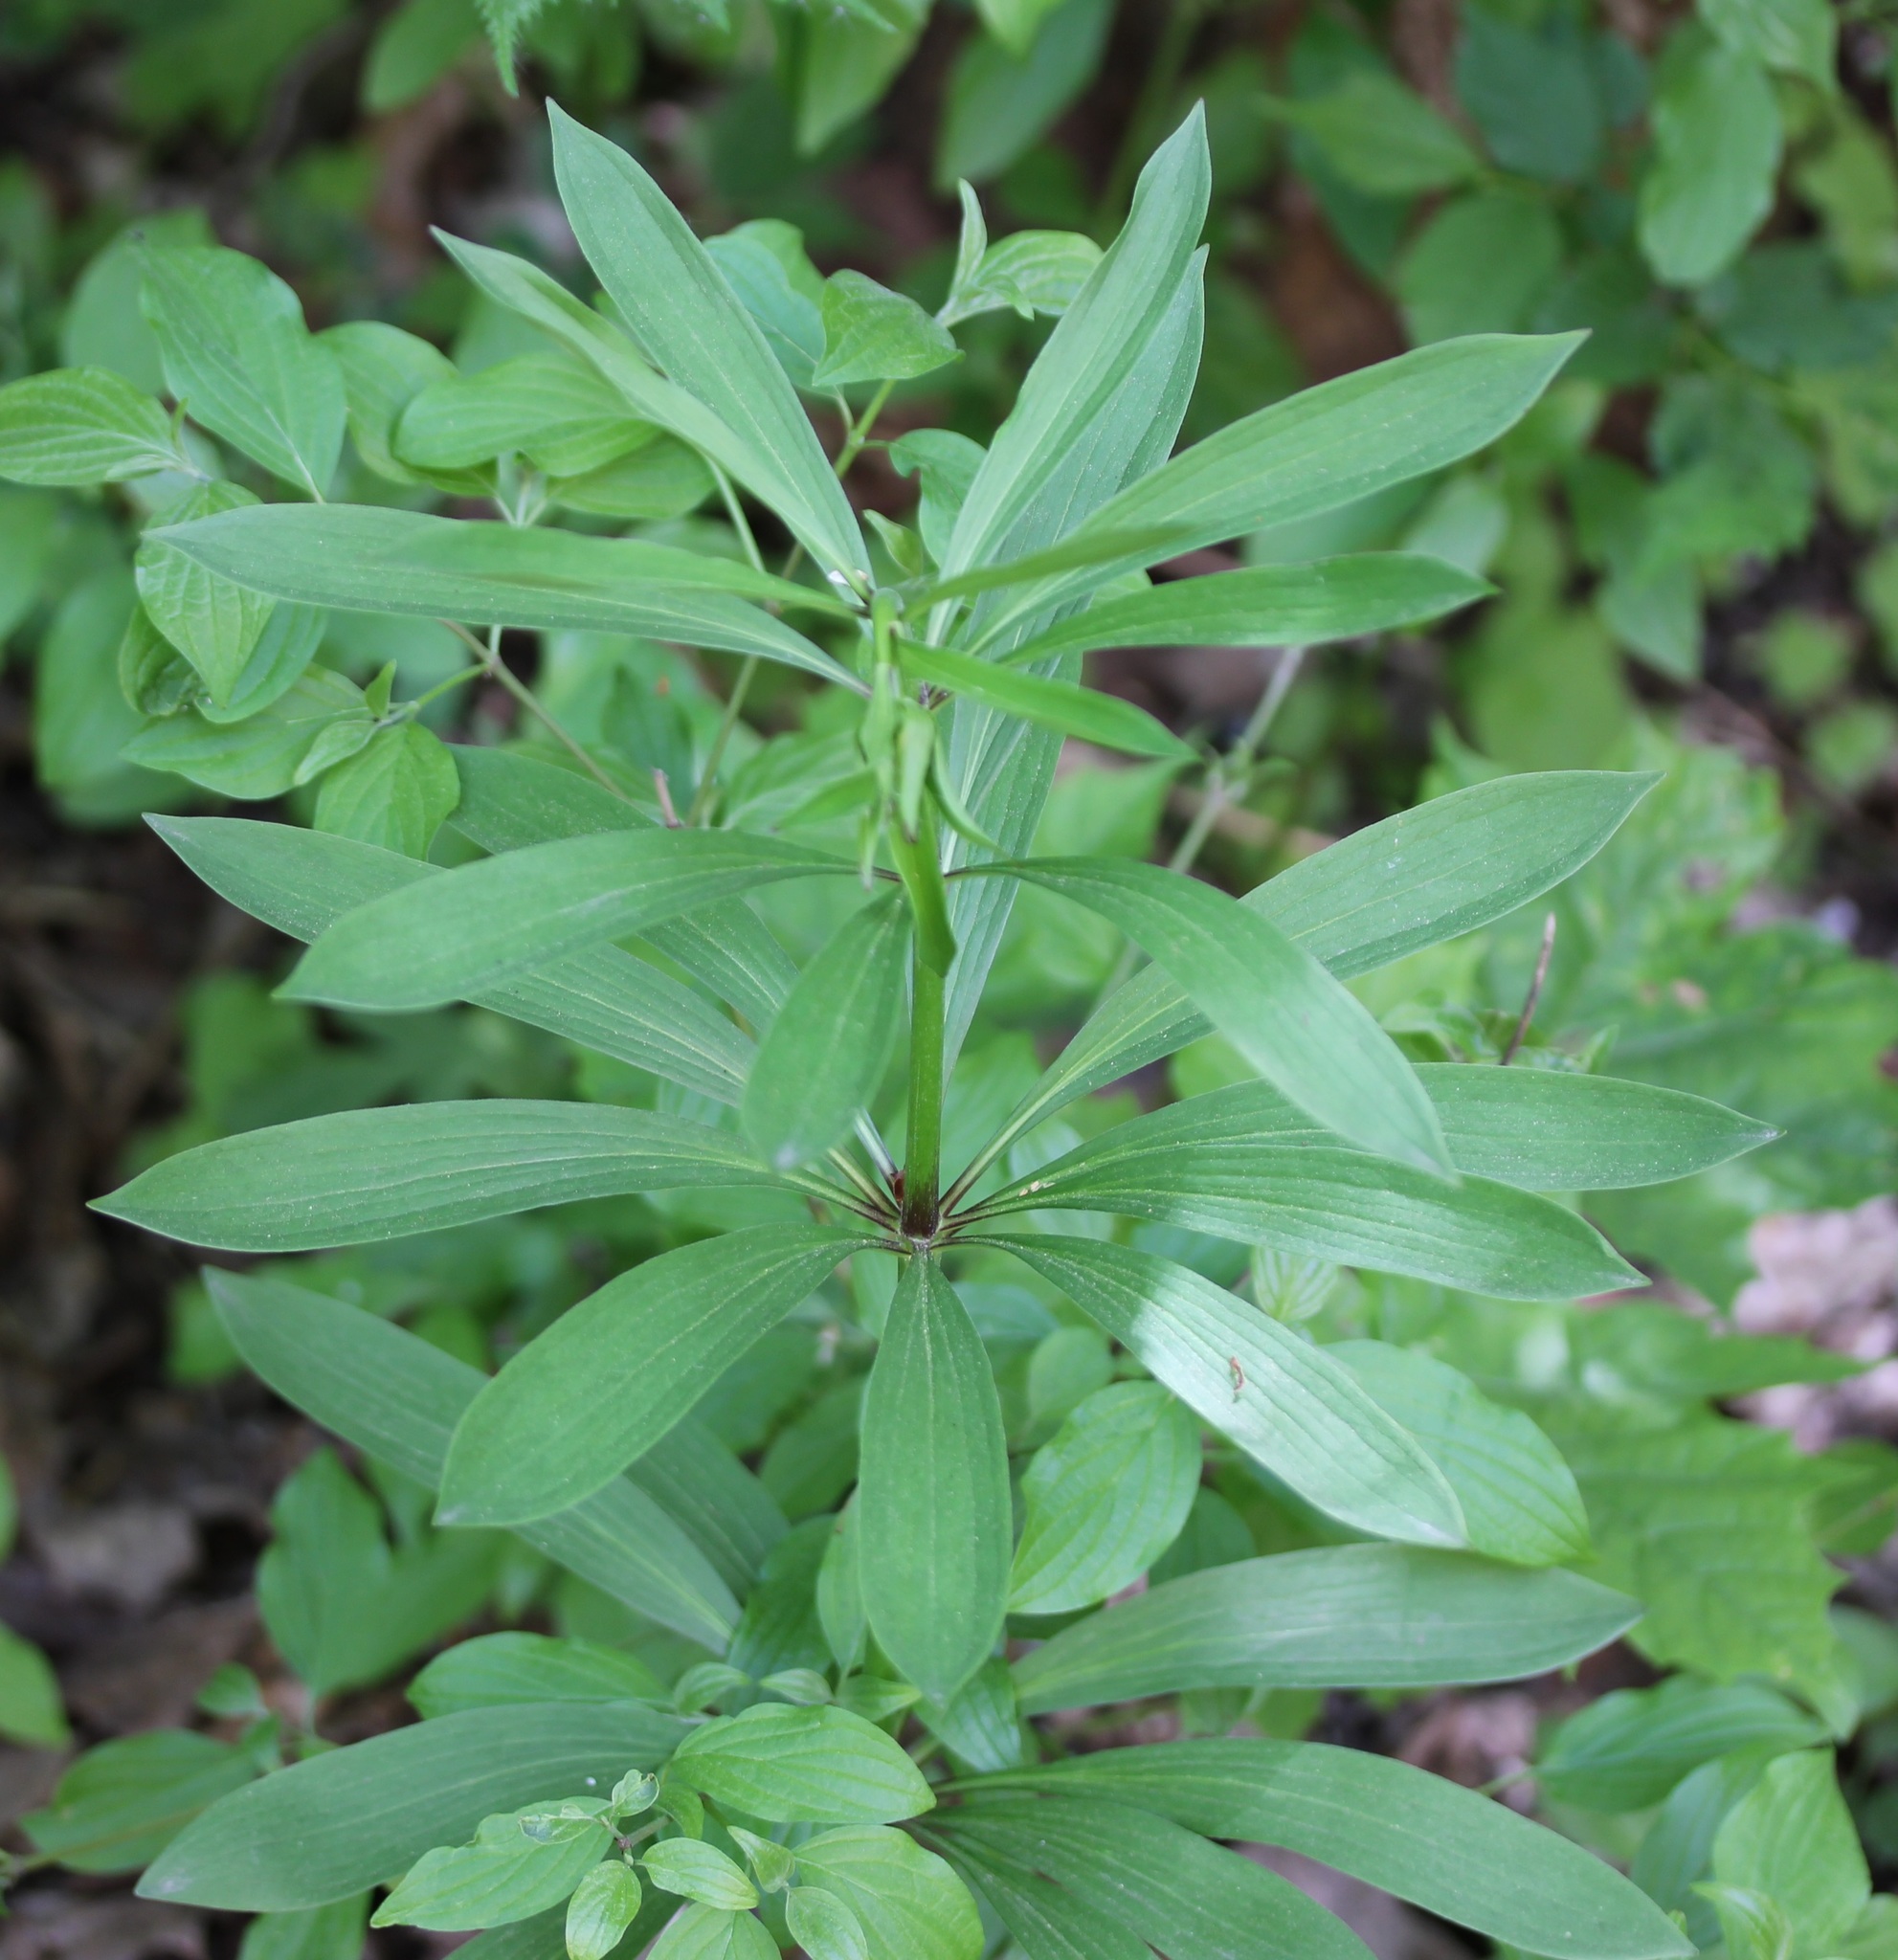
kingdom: Plantae
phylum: Tracheophyta
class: Liliopsida
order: Liliales
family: Liliaceae
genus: Lilium
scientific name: Lilium martagon
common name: Martagon lily
